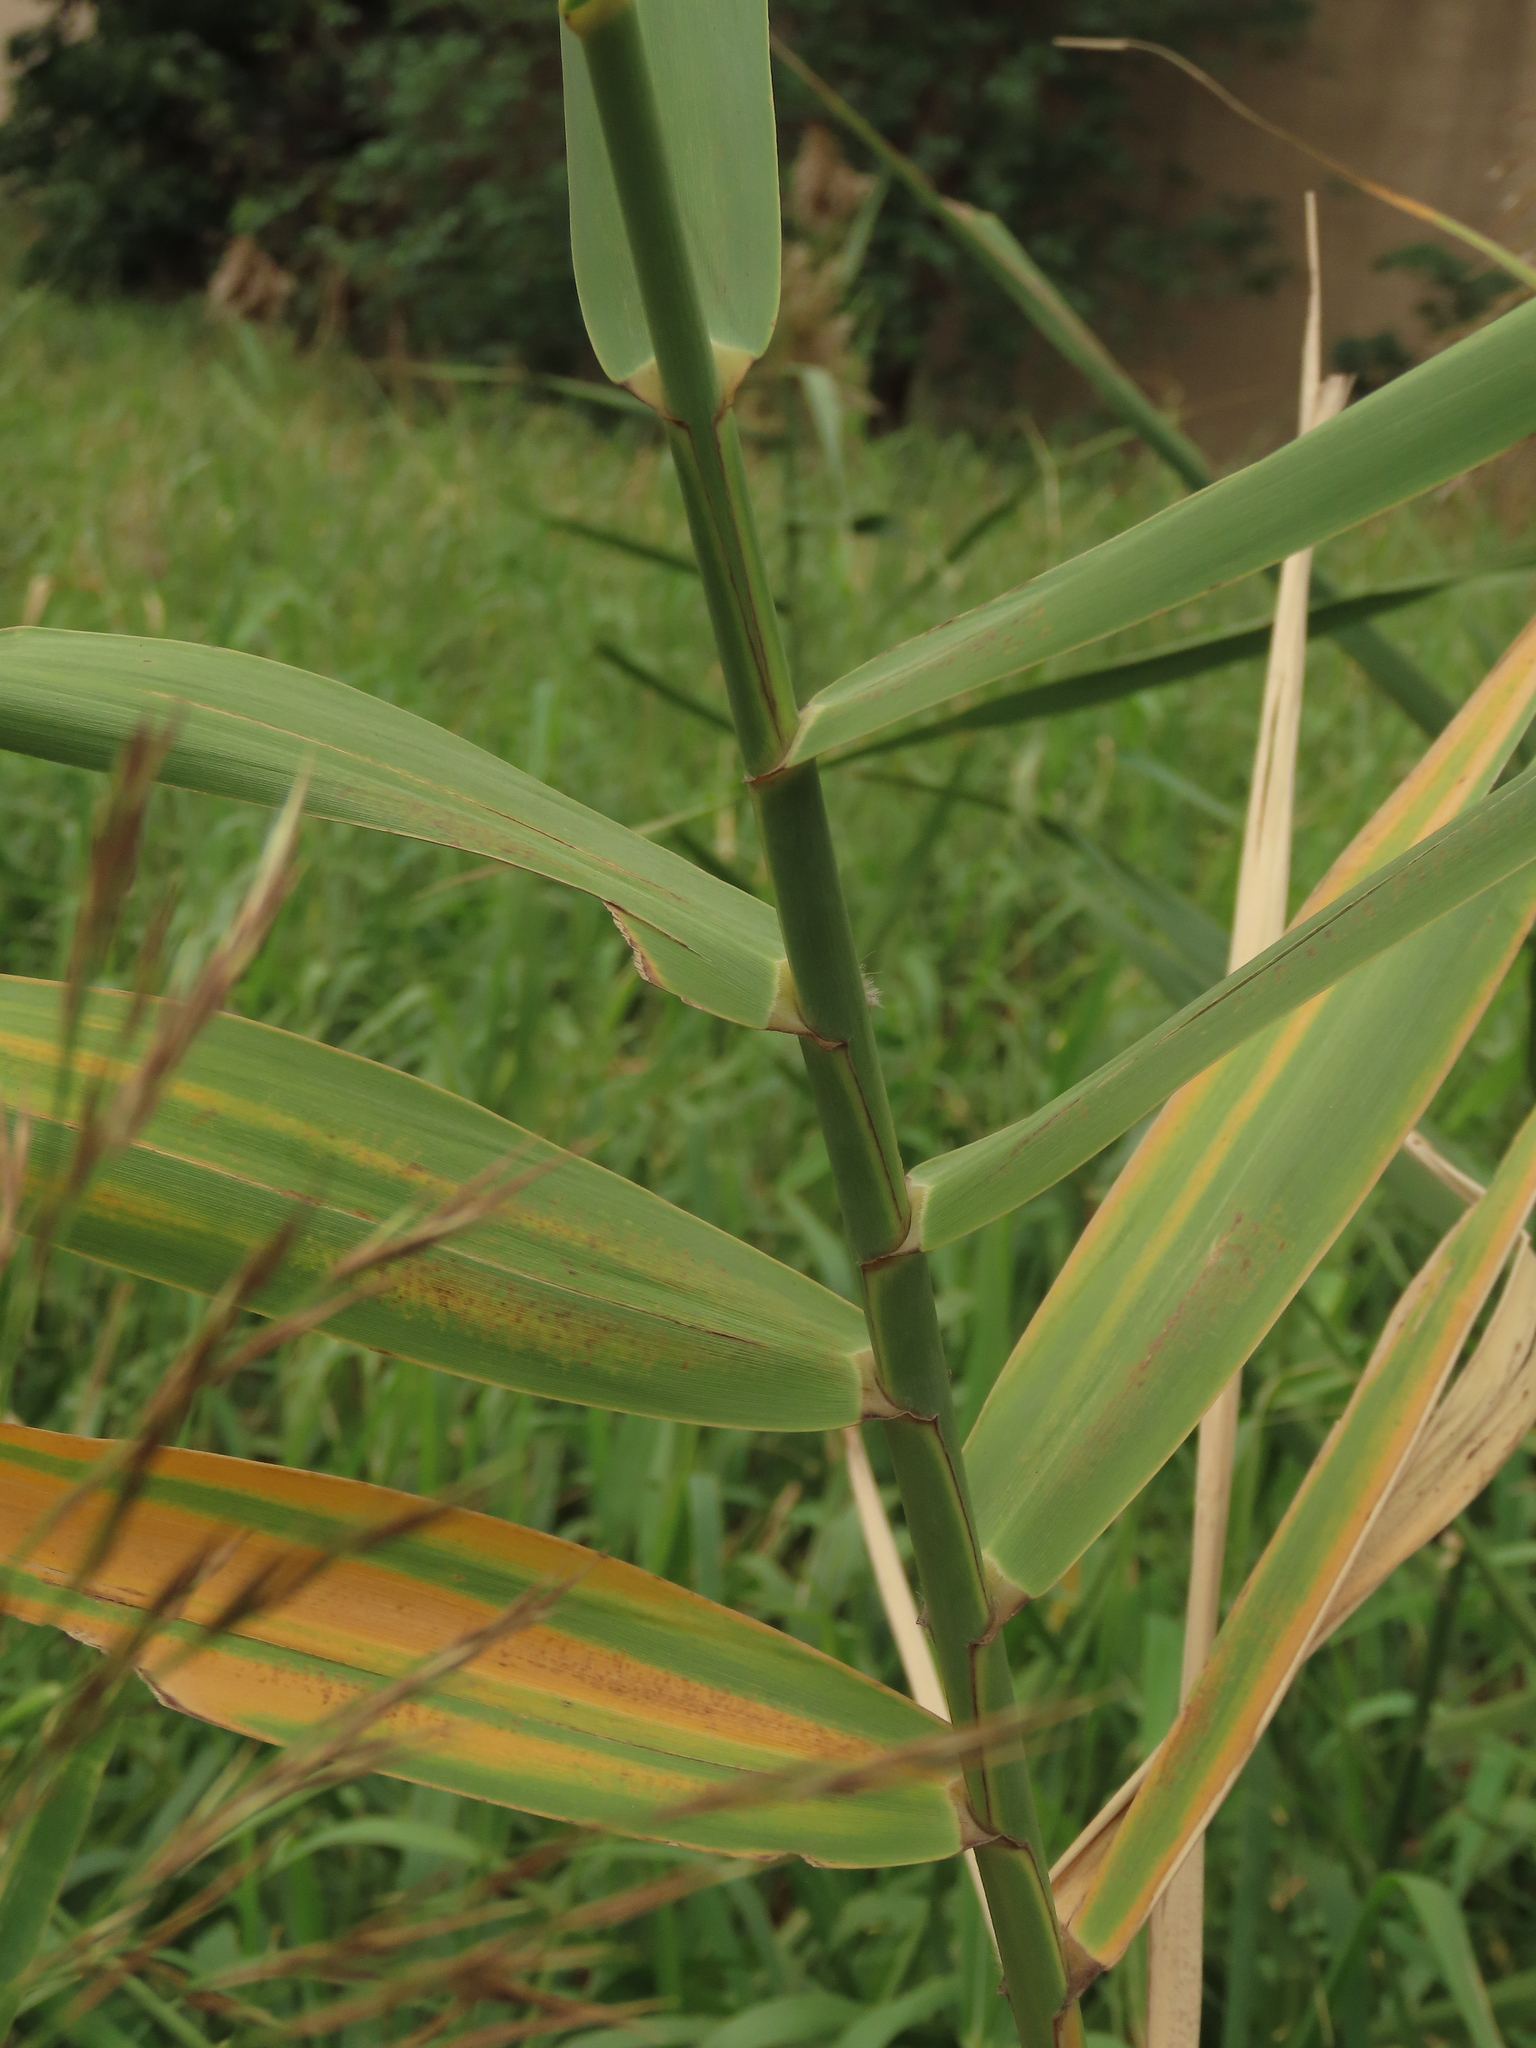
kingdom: Plantae
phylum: Tracheophyta
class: Liliopsida
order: Poales
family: Poaceae
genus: Phragmites
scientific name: Phragmites karka
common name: Tropical reed
